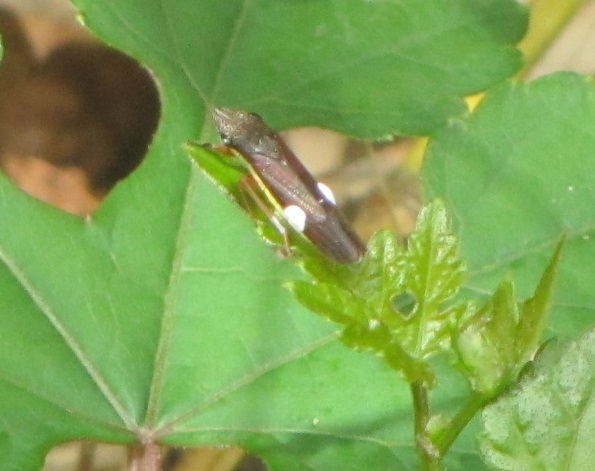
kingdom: Animalia
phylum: Arthropoda
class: Insecta
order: Hemiptera
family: Cicadellidae
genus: Homalodisca
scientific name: Homalodisca insolita
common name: Johnson grass sharpshooter
